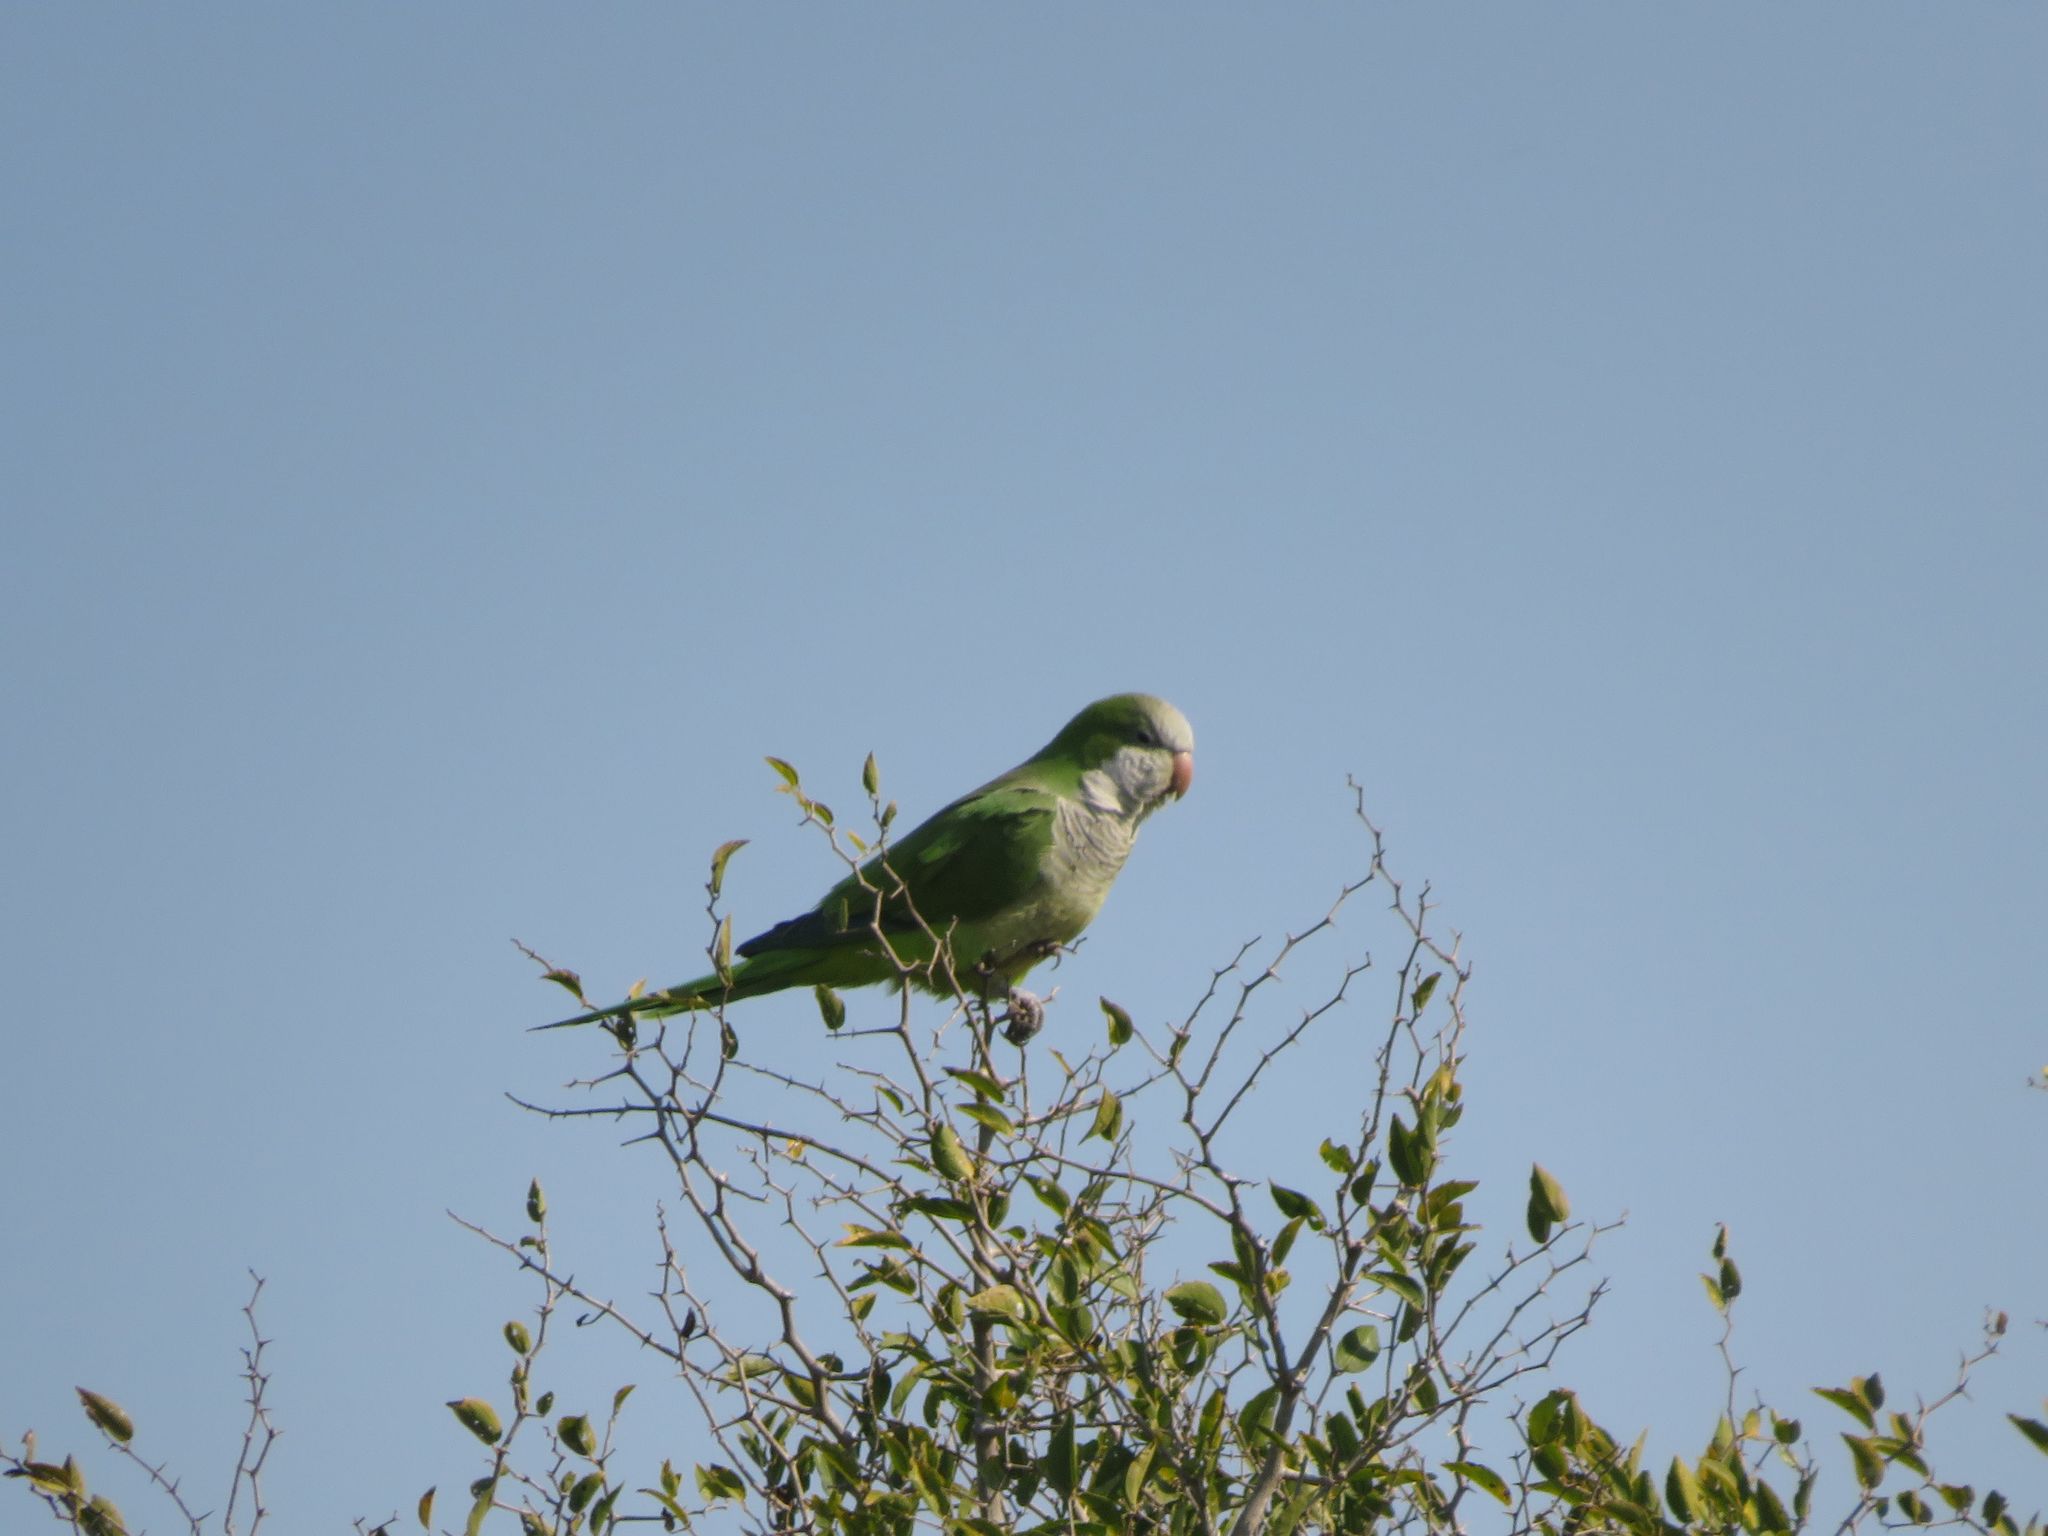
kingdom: Animalia
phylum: Chordata
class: Aves
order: Psittaciformes
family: Psittacidae
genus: Myiopsitta
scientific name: Myiopsitta monachus
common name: Monk parakeet
